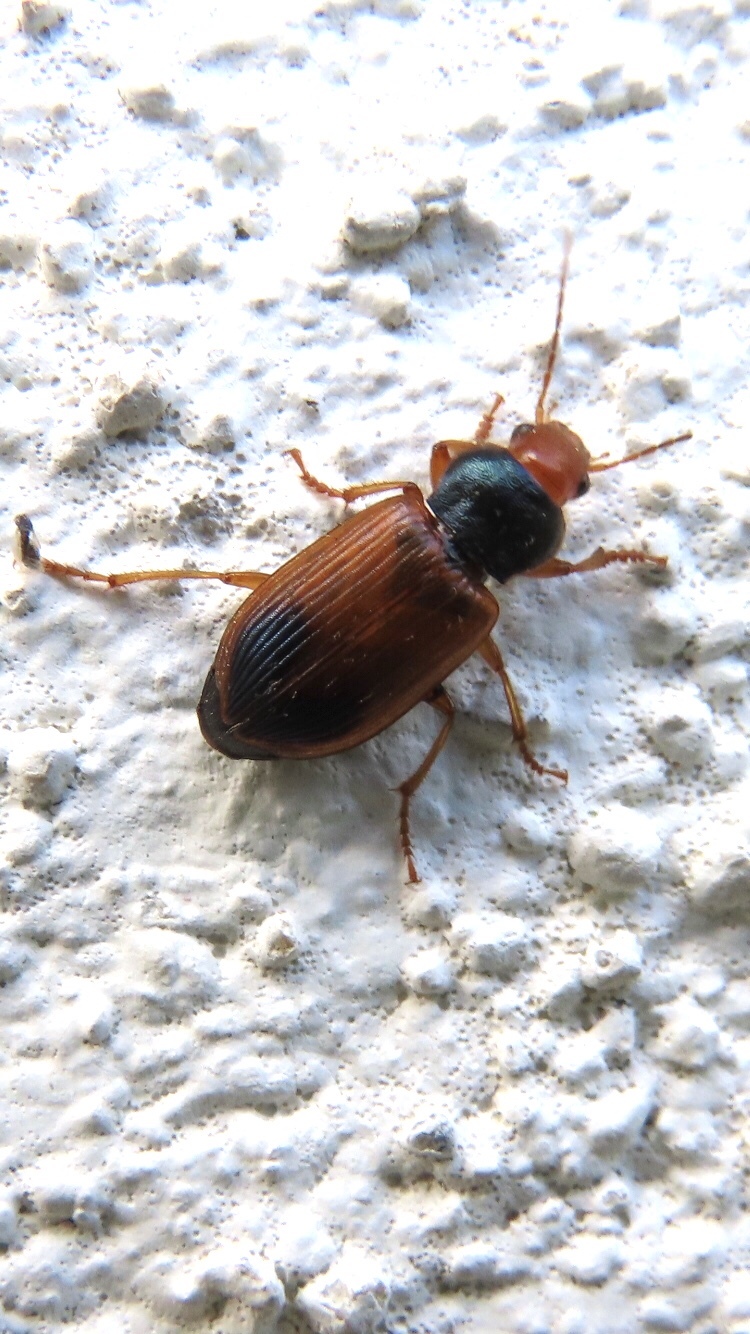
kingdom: Animalia
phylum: Arthropoda
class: Insecta
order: Coleoptera
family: Carabidae
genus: Diachromus
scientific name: Diachromus germanus
